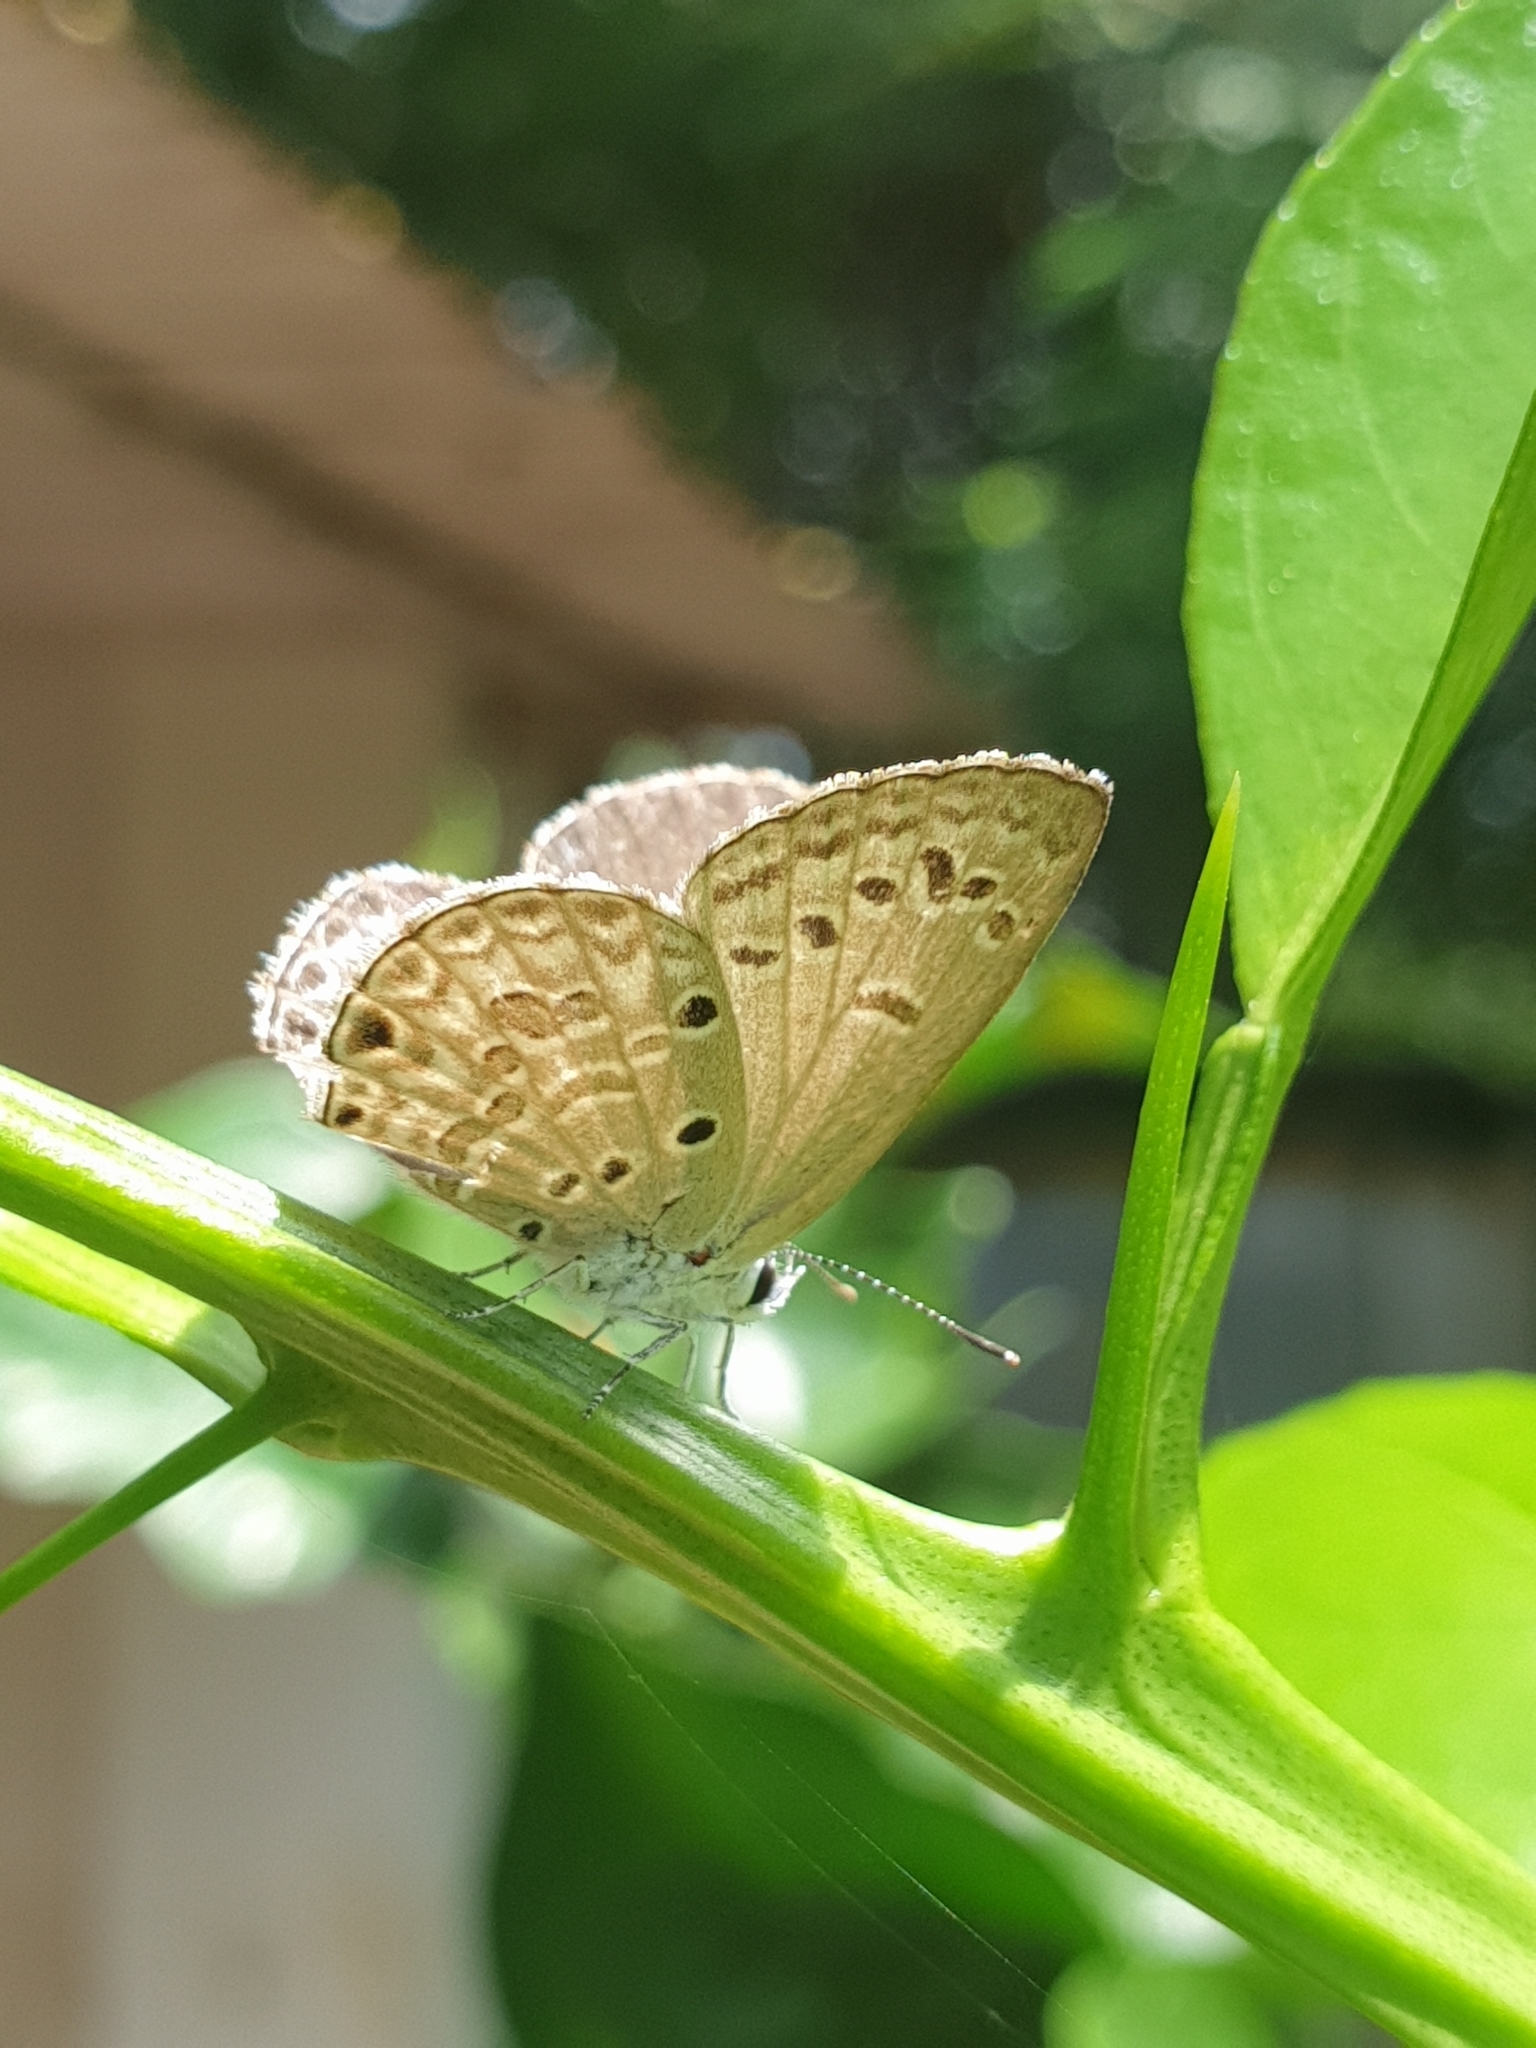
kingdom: Animalia
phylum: Arthropoda
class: Insecta
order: Lepidoptera
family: Lycaenidae
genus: Chilades
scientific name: Chilades laius
